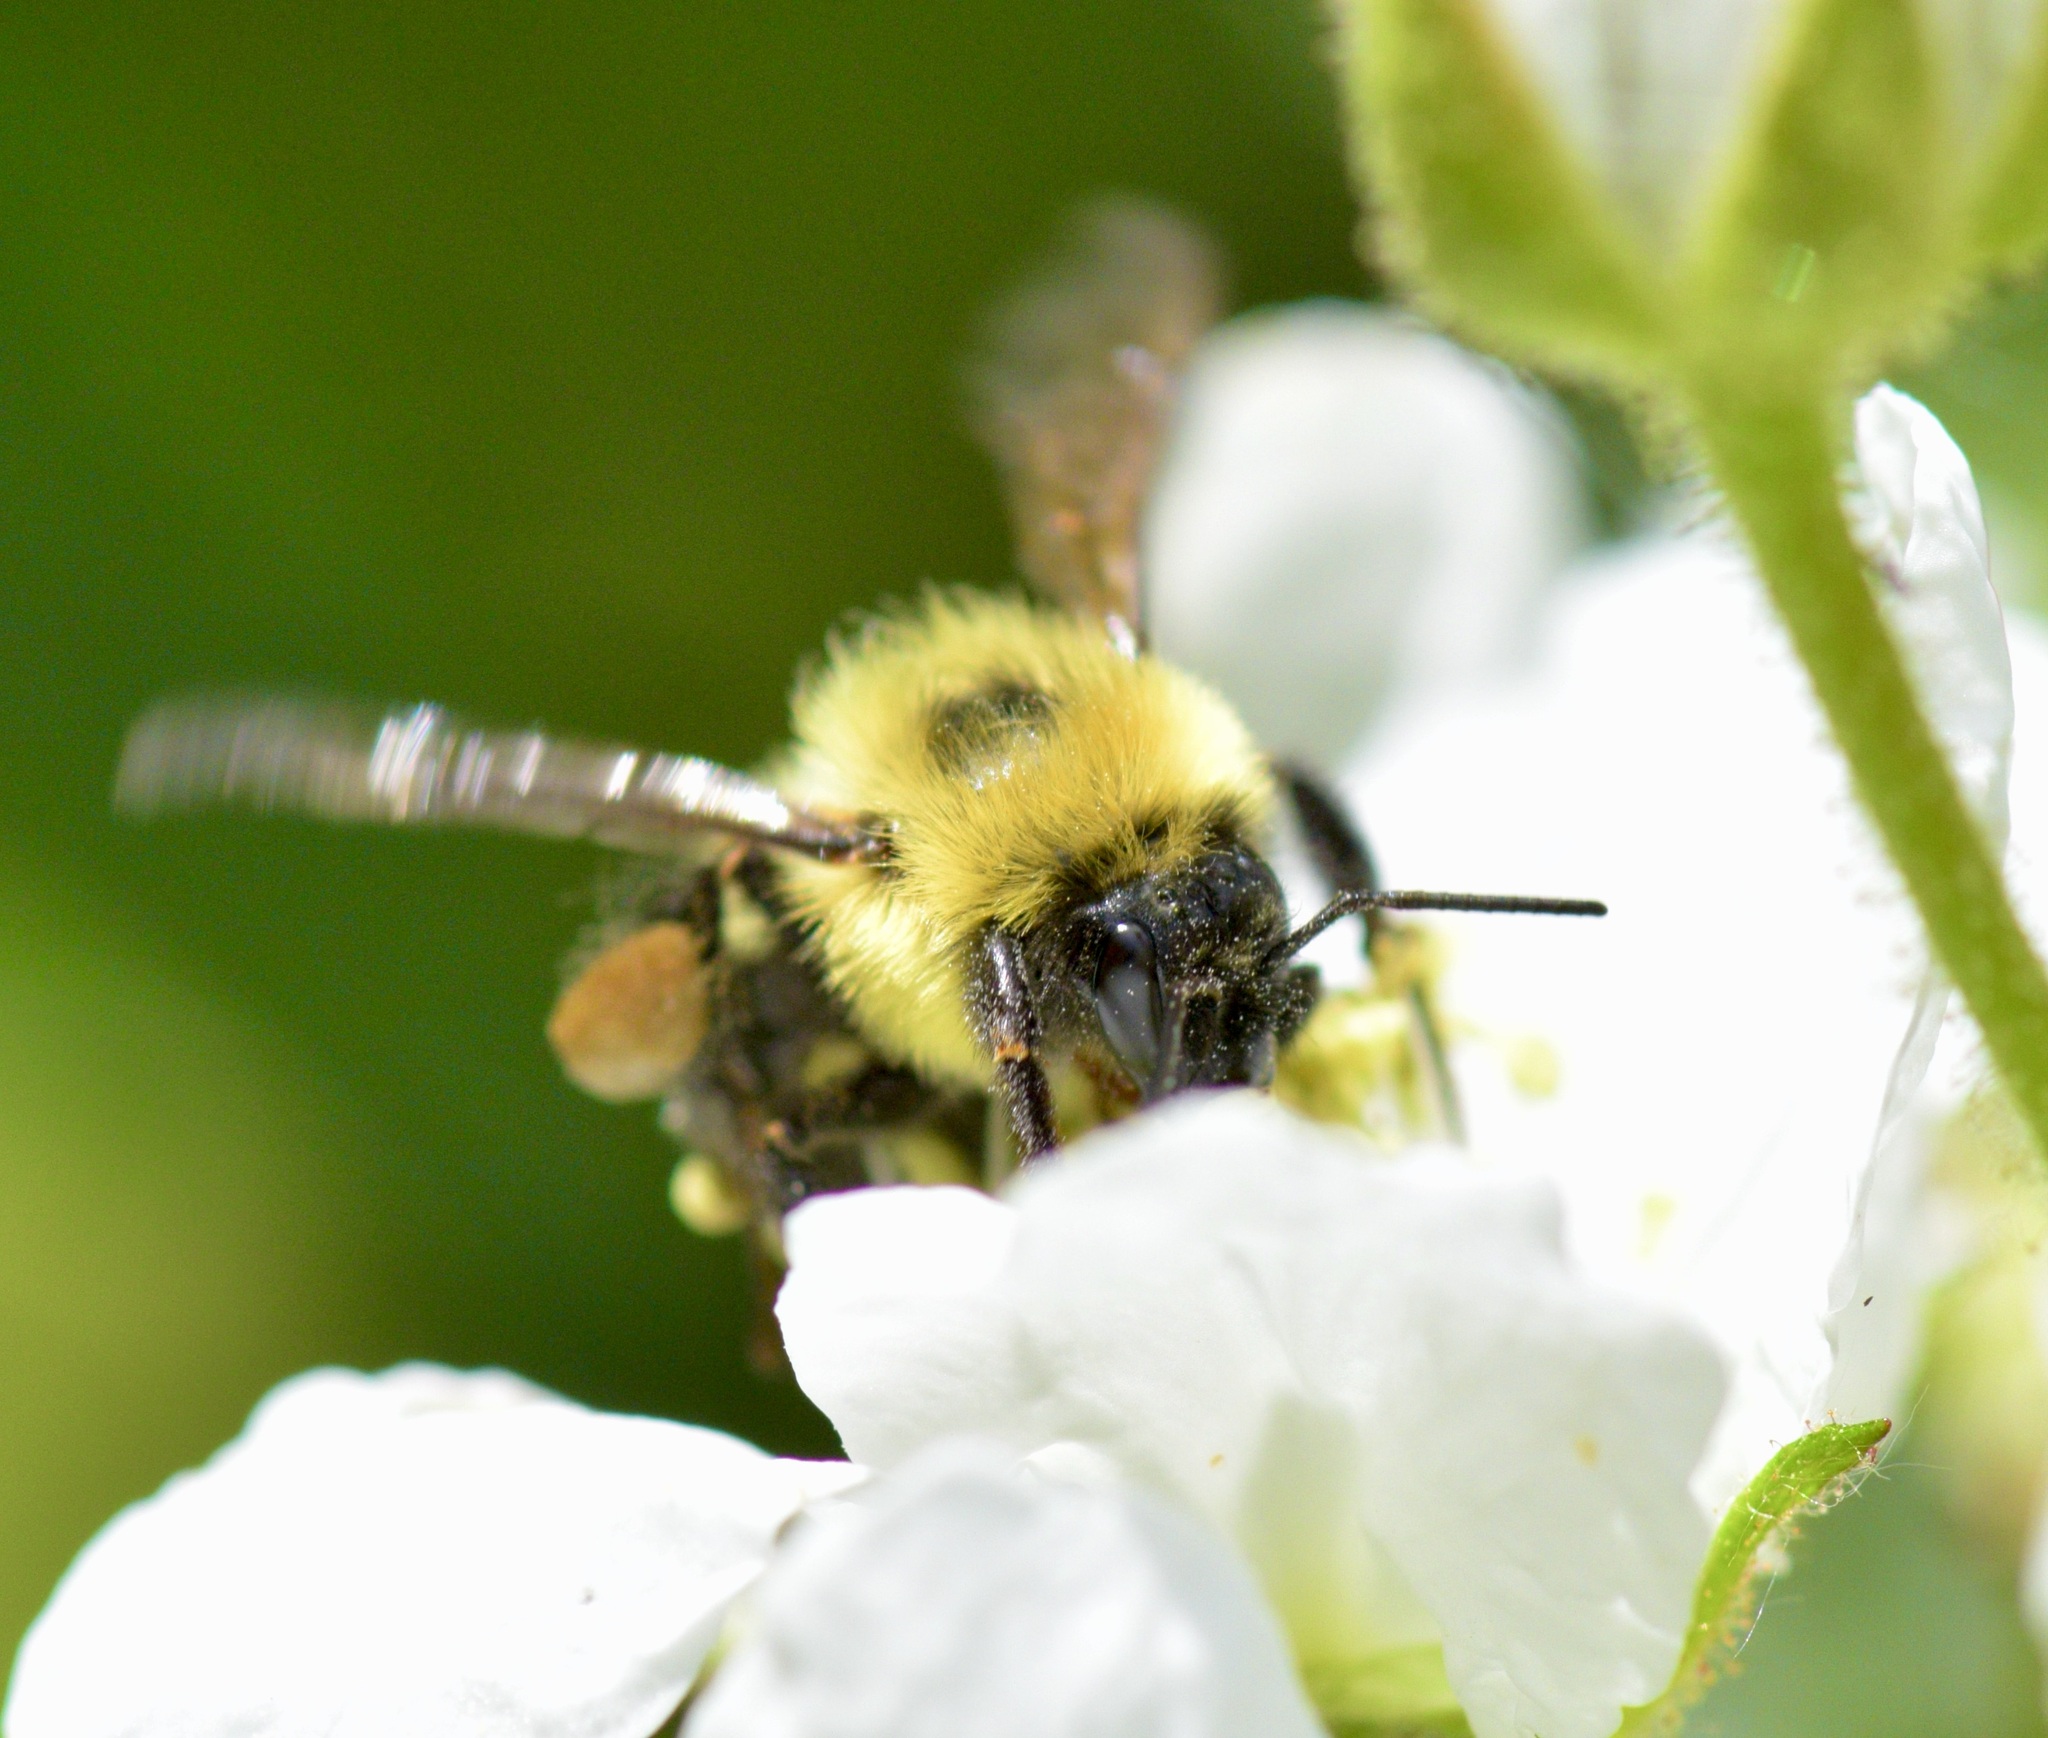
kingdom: Animalia
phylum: Arthropoda
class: Insecta
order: Hymenoptera
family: Apidae
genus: Bombus
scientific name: Bombus bimaculatus
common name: Two-spotted bumble bee
